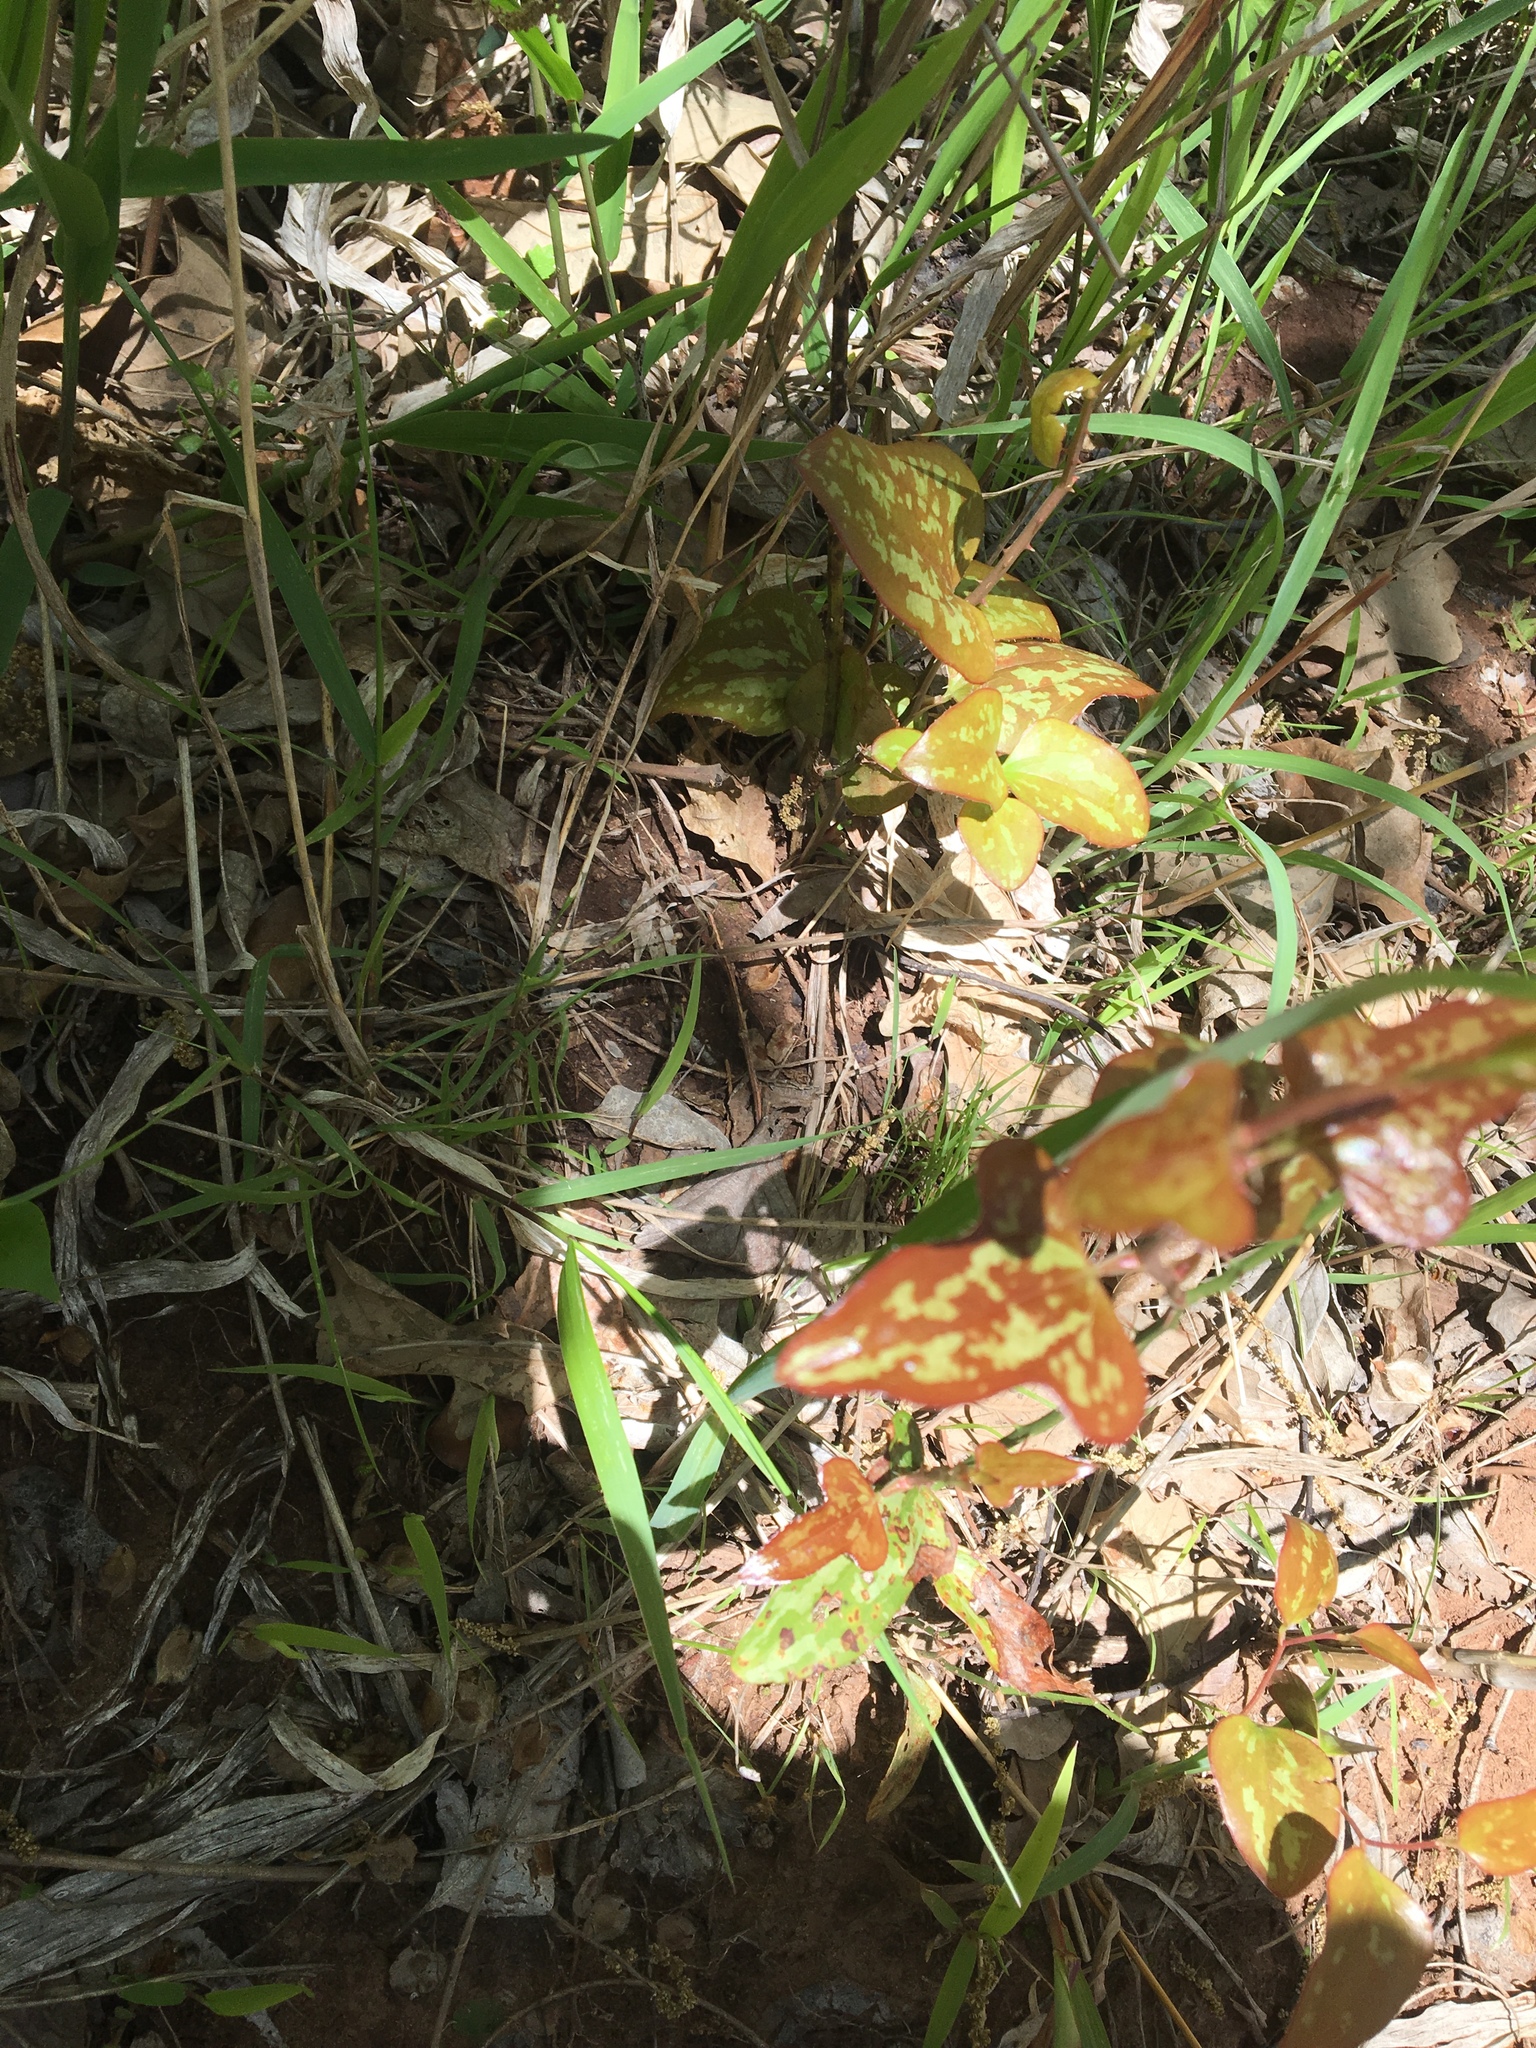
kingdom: Plantae
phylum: Tracheophyta
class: Liliopsida
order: Liliales
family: Smilacaceae
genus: Smilax
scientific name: Smilax bona-nox
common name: Catbrier
